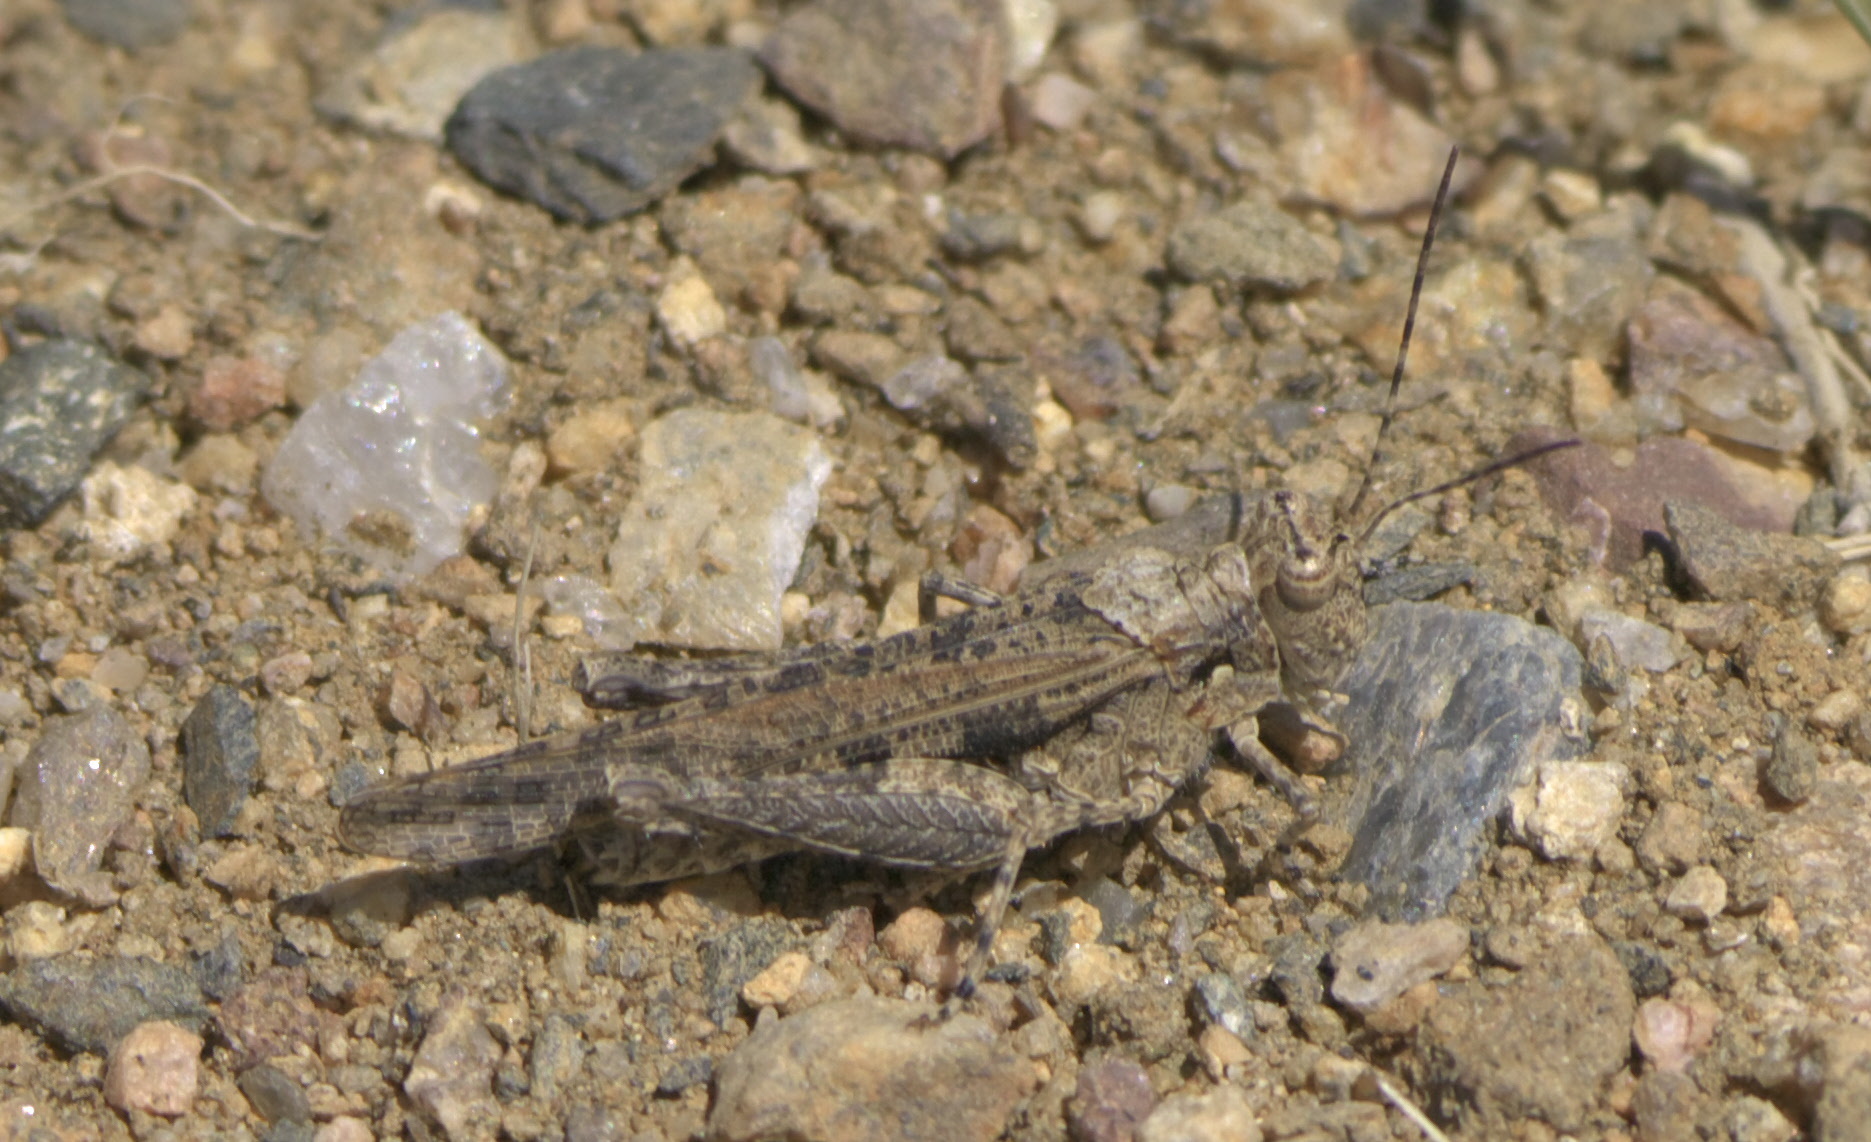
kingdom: Animalia
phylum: Arthropoda
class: Insecta
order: Orthoptera
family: Acrididae
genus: Derotmema
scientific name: Derotmema haydenii
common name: Hayden's grasshopper
